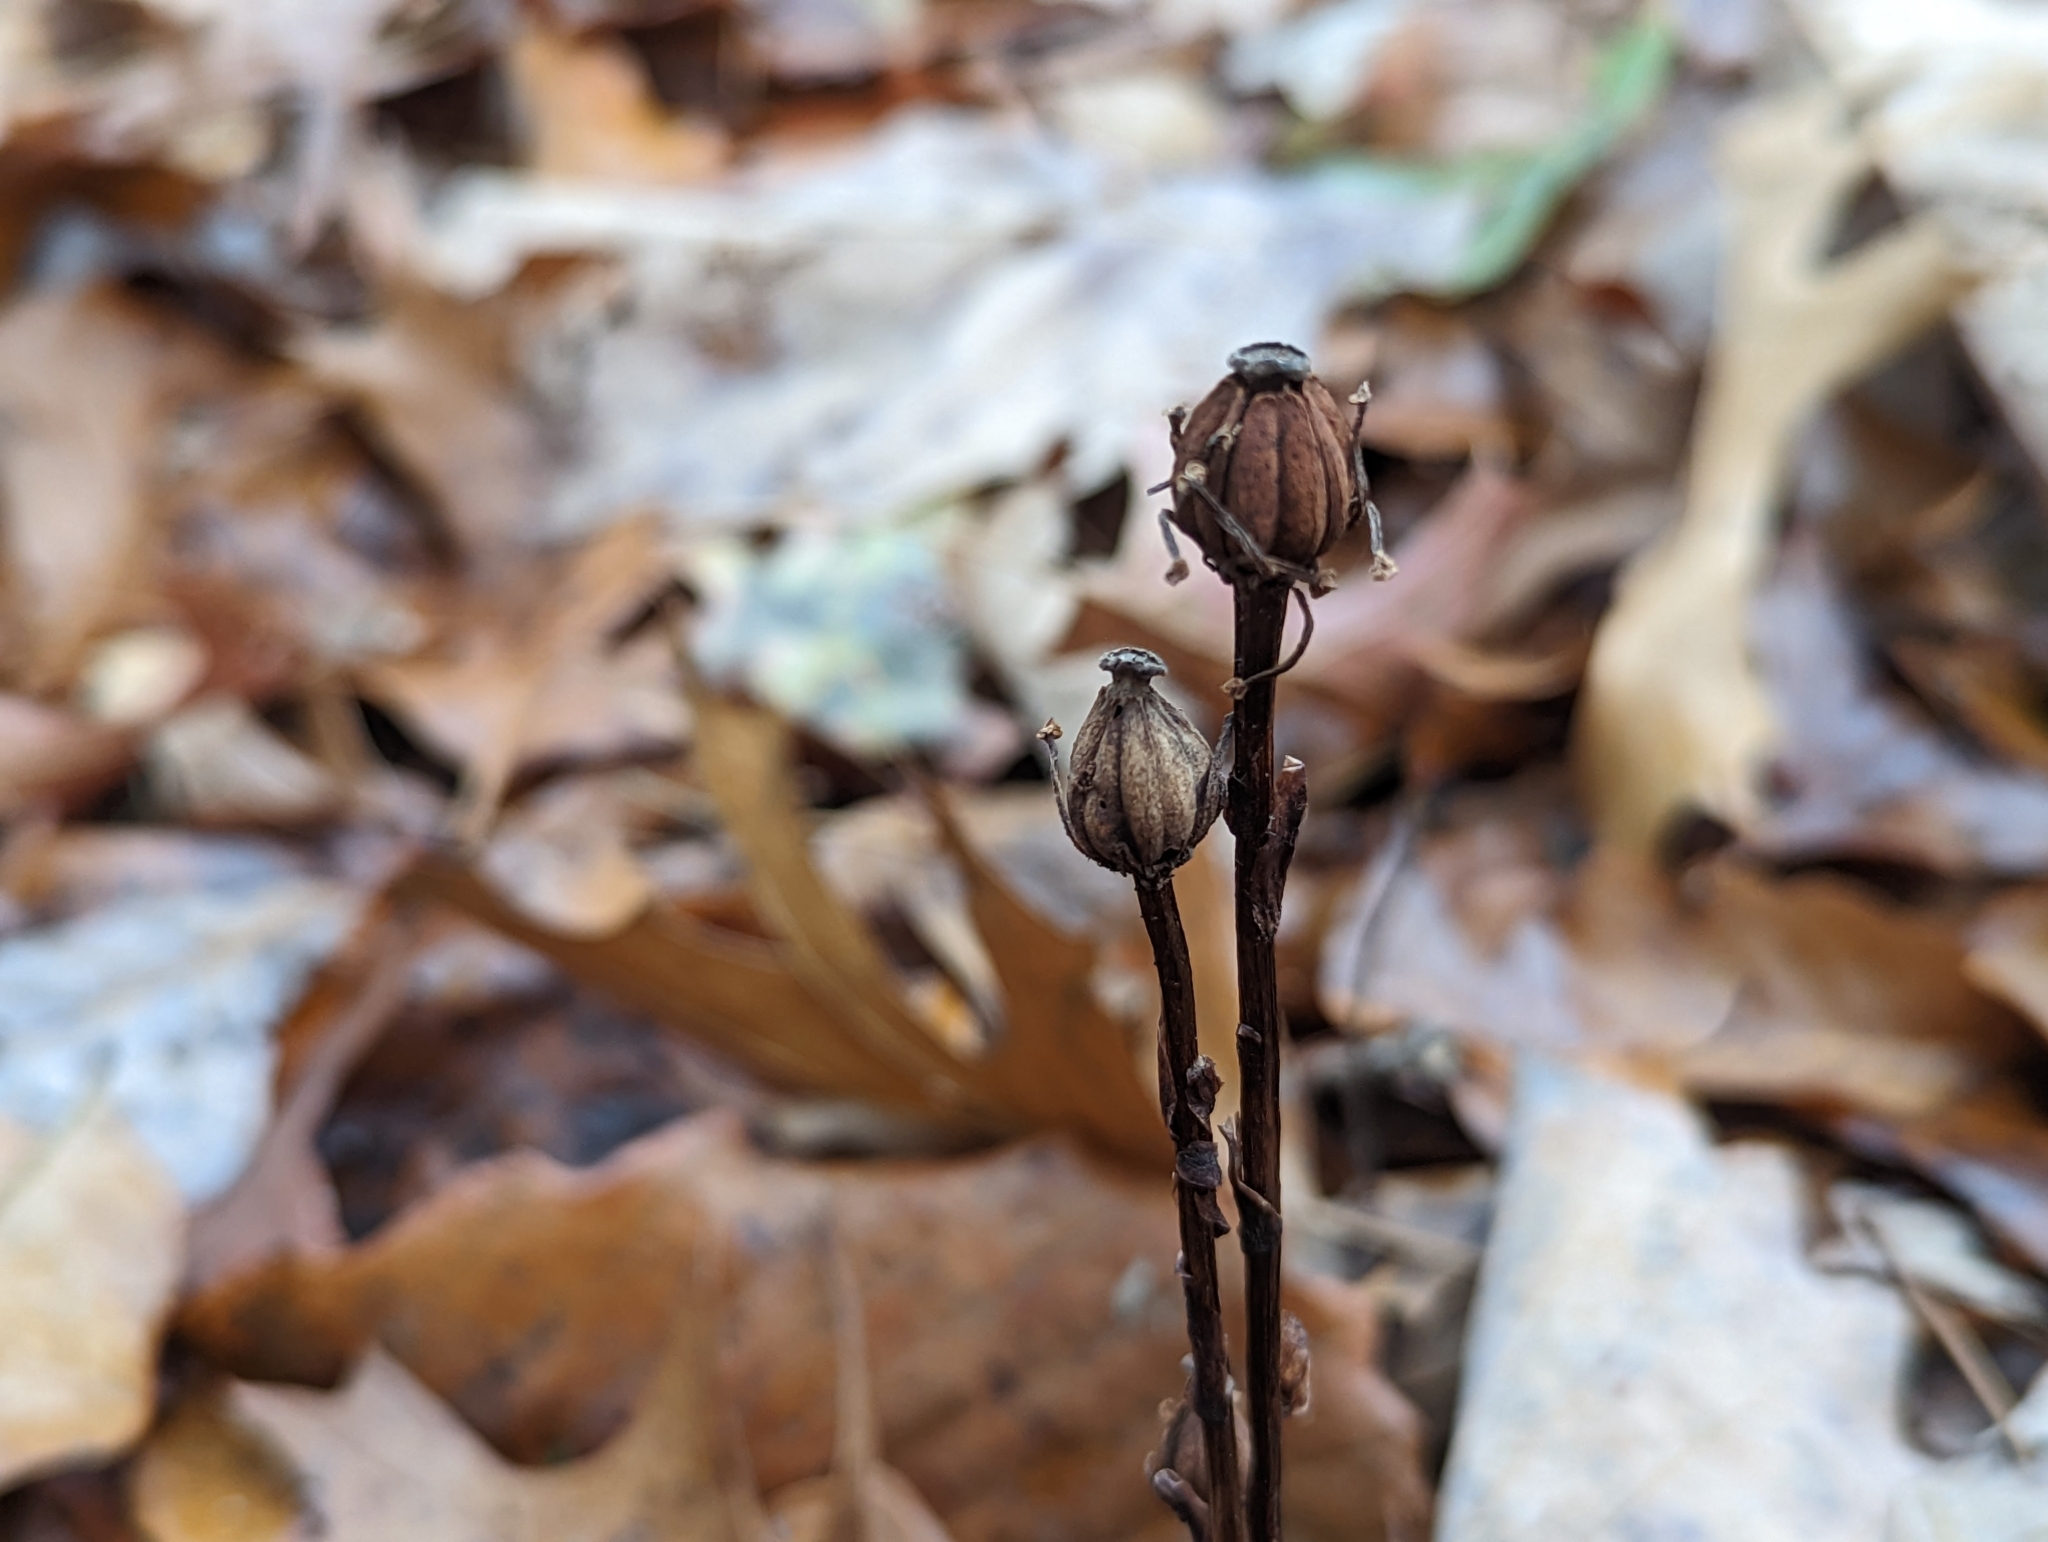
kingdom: Plantae
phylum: Tracheophyta
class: Magnoliopsida
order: Ericales
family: Ericaceae
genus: Monotropa
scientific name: Monotropa uniflora
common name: Convulsion root
